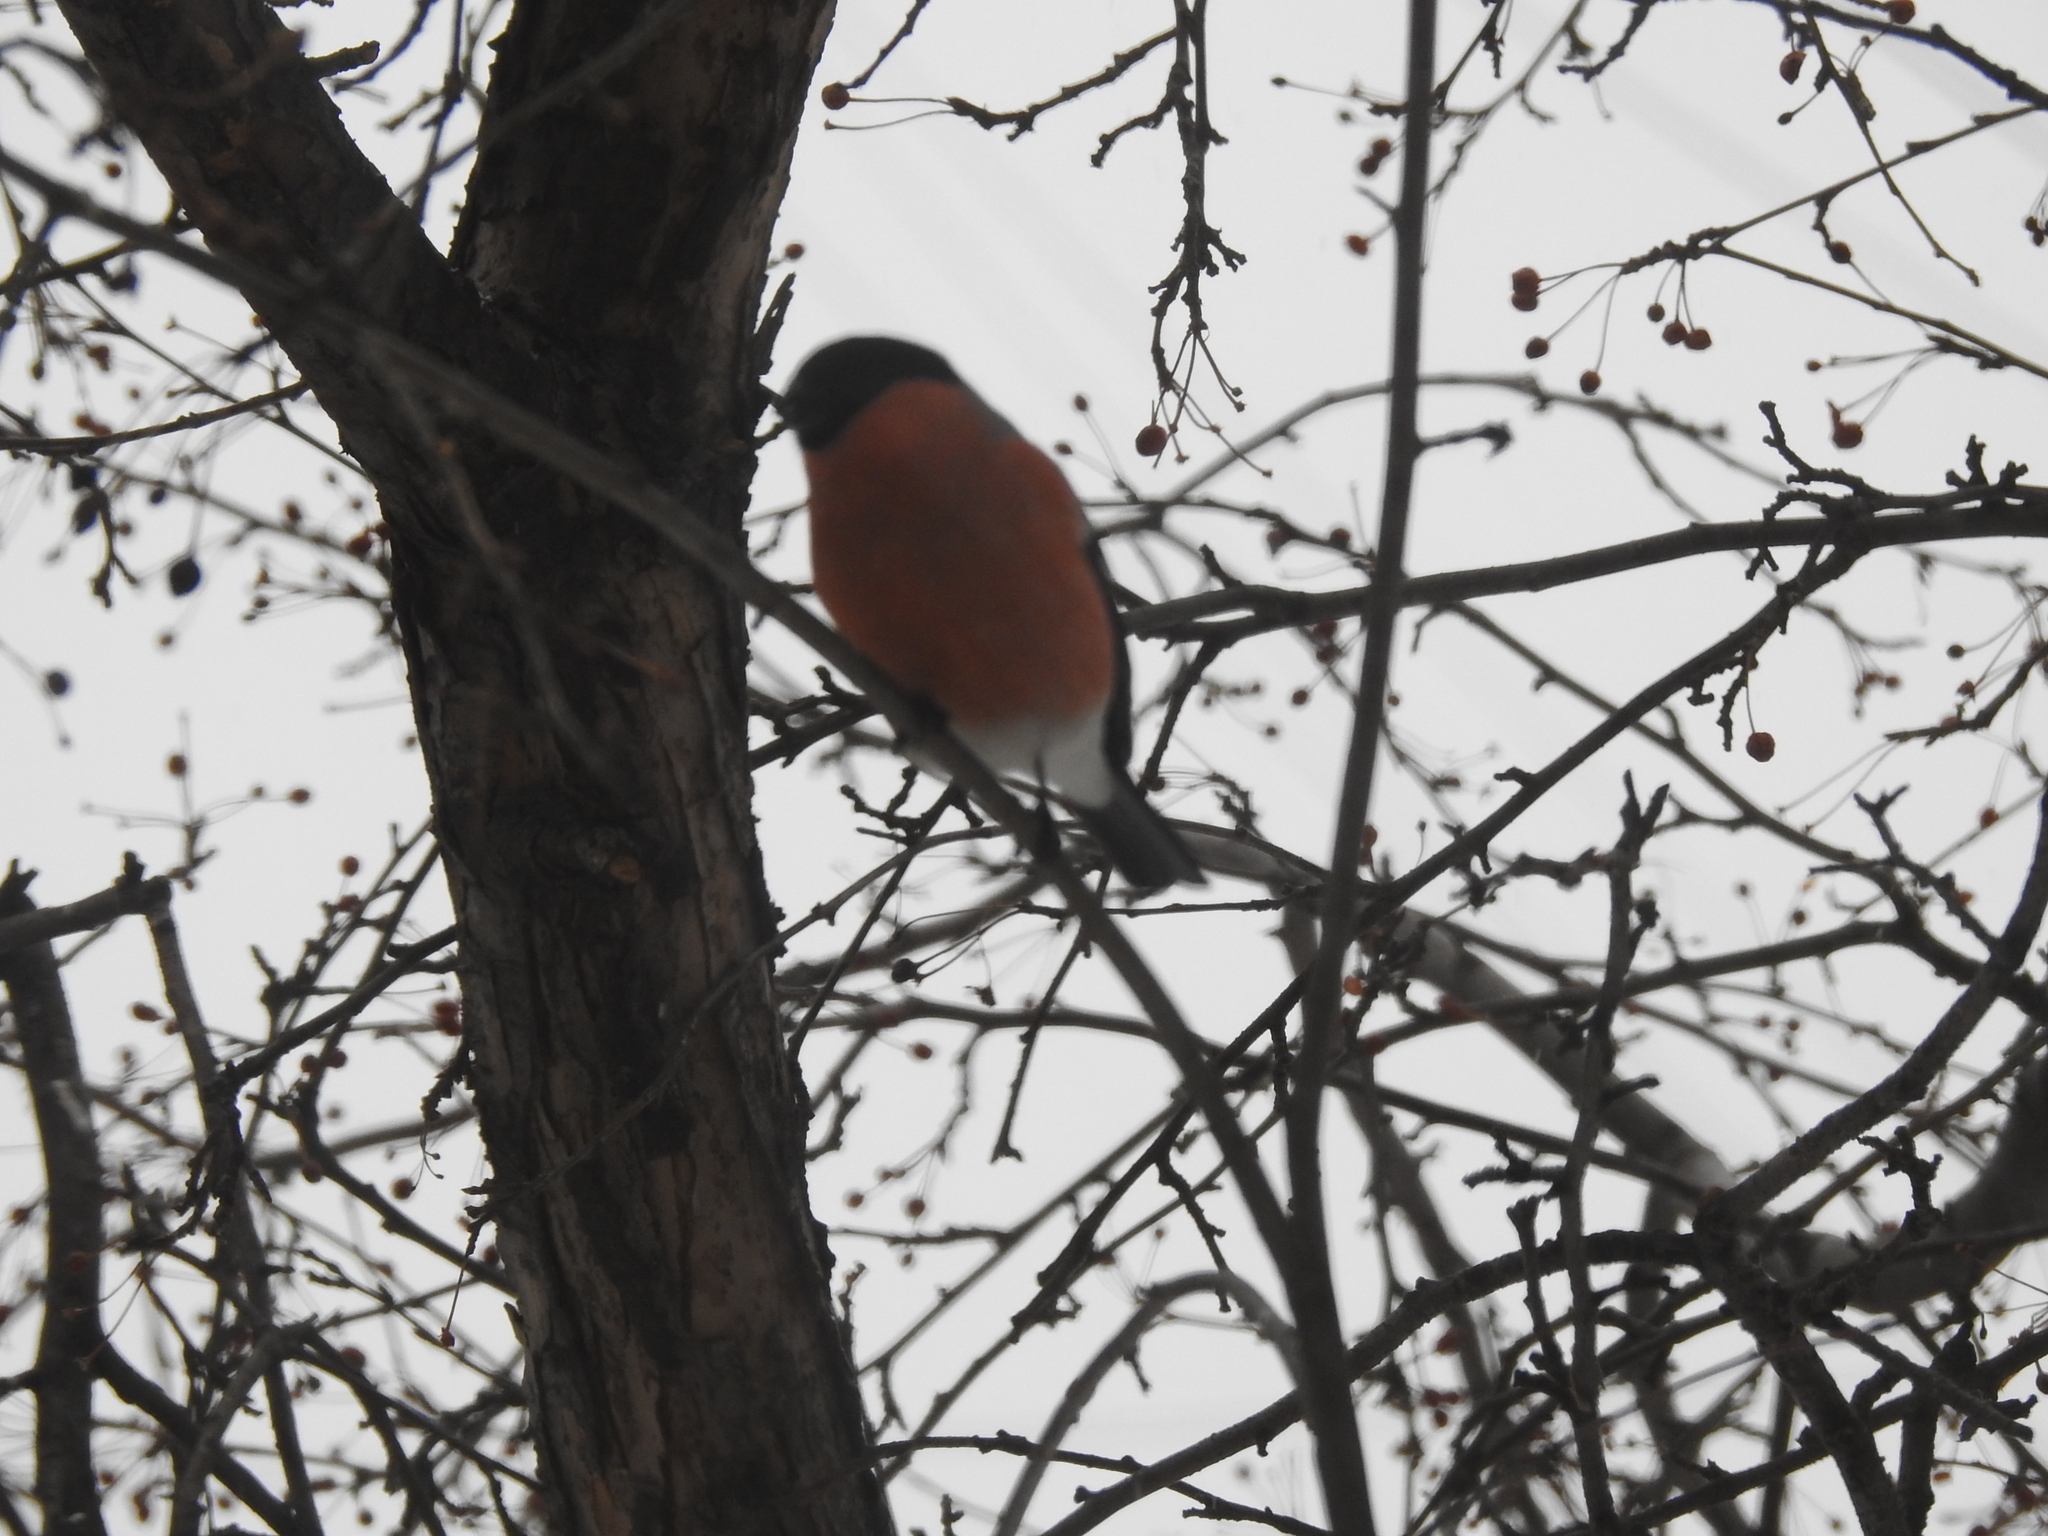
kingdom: Animalia
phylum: Chordata
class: Aves
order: Passeriformes
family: Fringillidae
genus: Pyrrhula
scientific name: Pyrrhula pyrrhula
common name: Eurasian bullfinch
